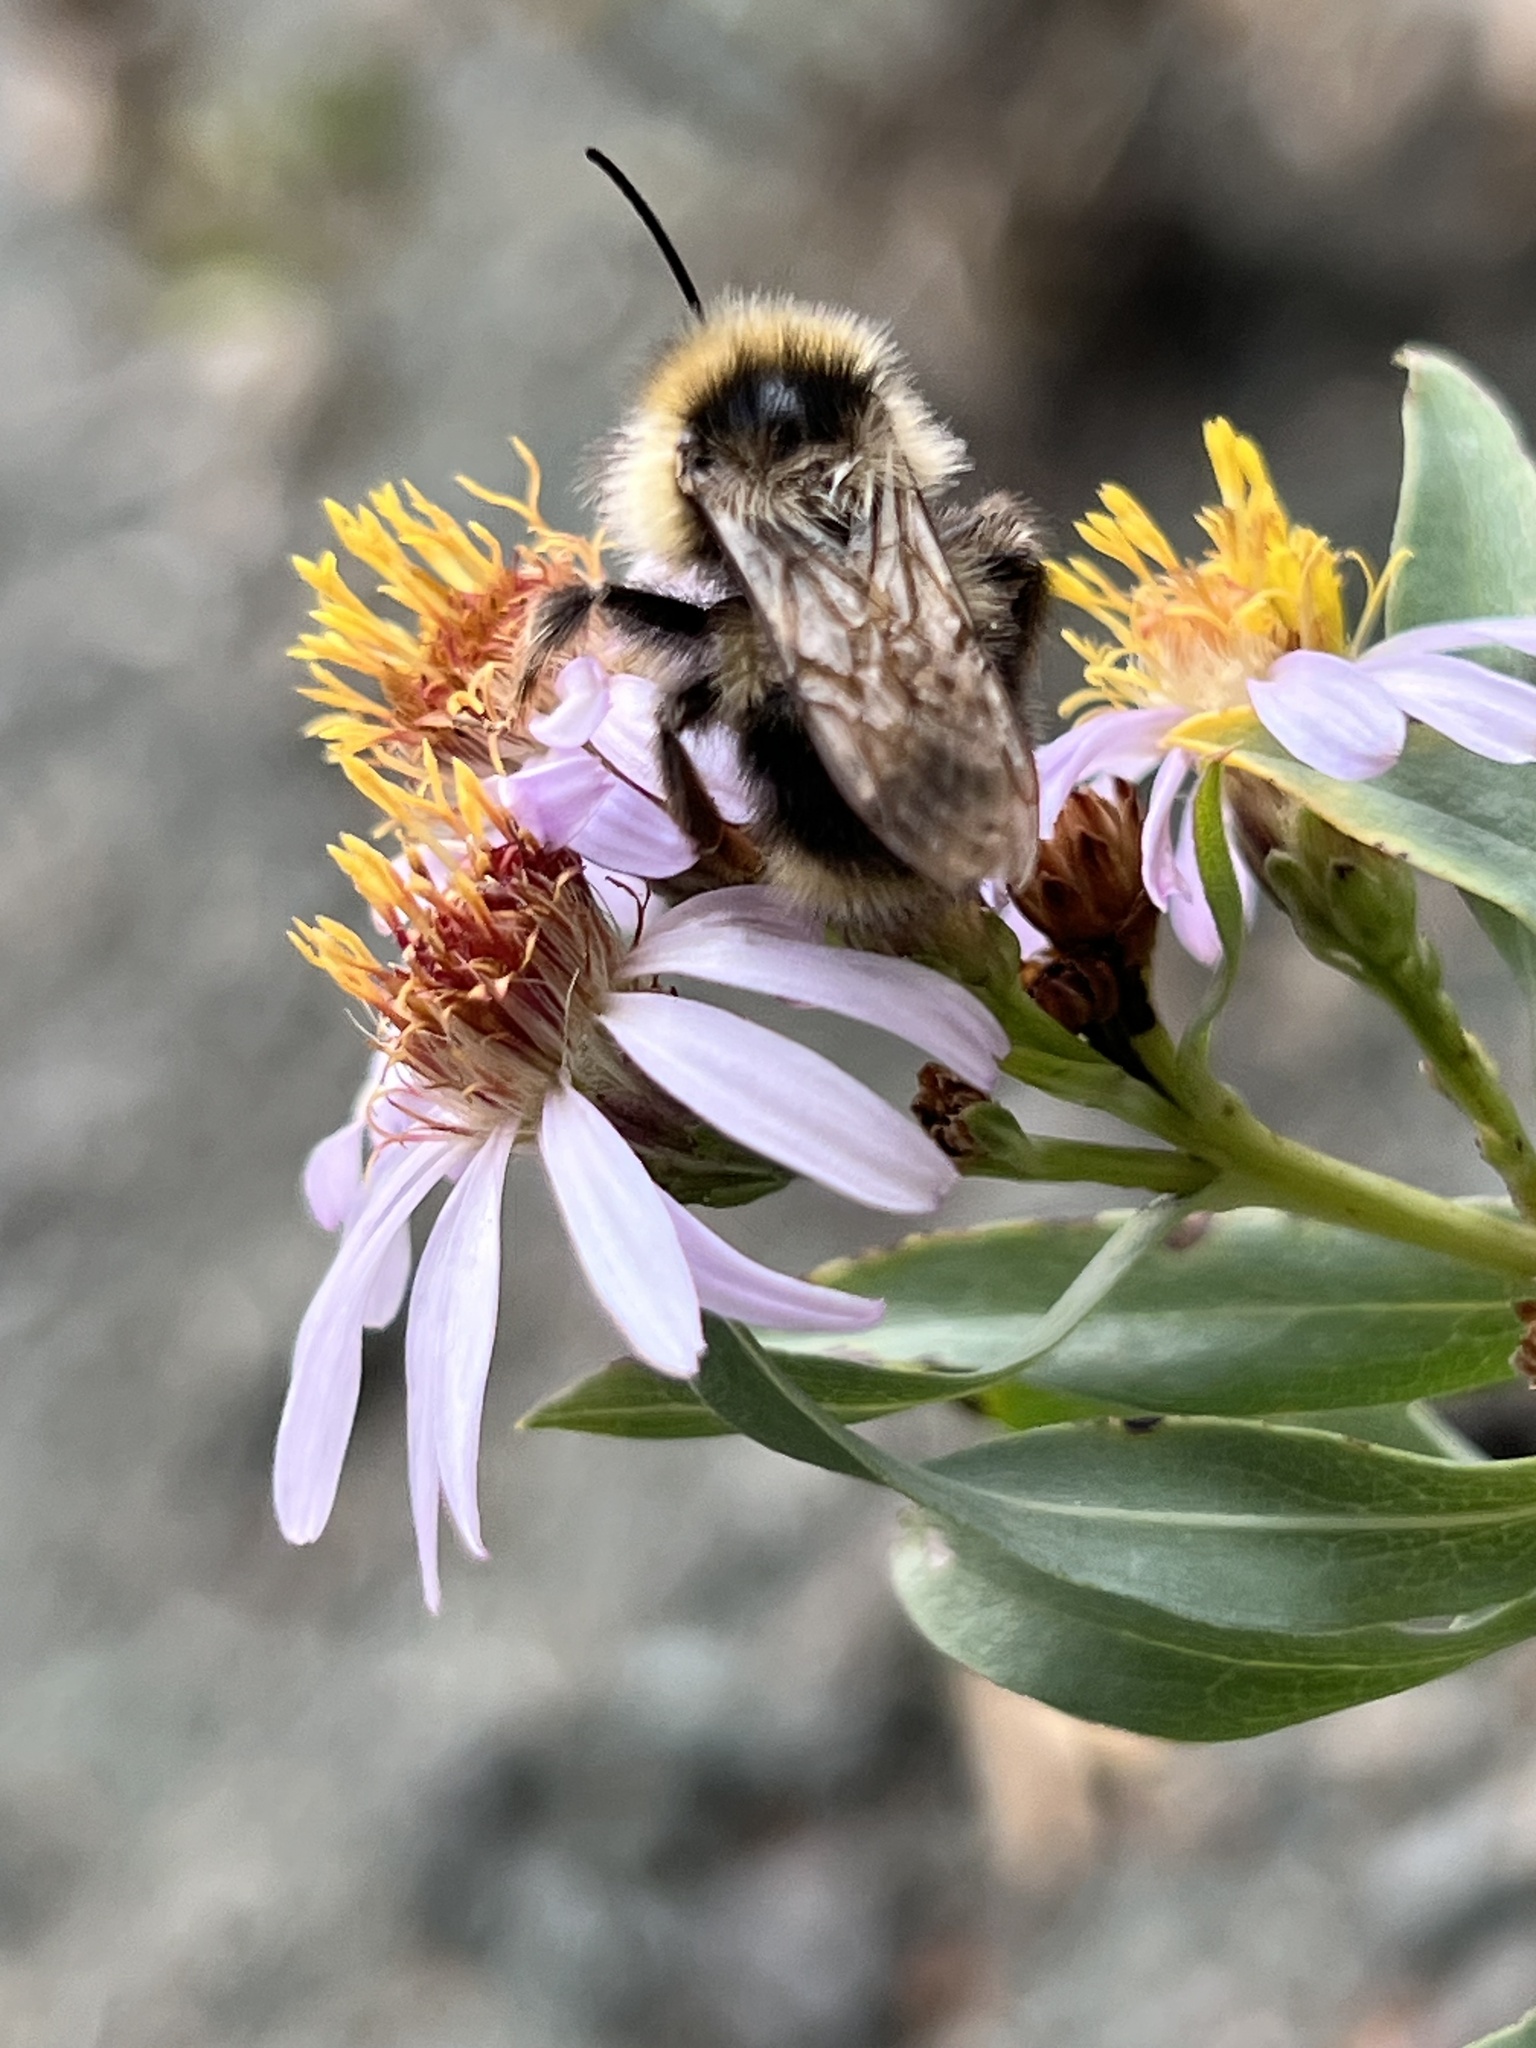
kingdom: Animalia
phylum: Arthropoda
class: Insecta
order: Hymenoptera
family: Apidae
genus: Bombus
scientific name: Bombus flavidus
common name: Fernald cuckoo bumble bee
